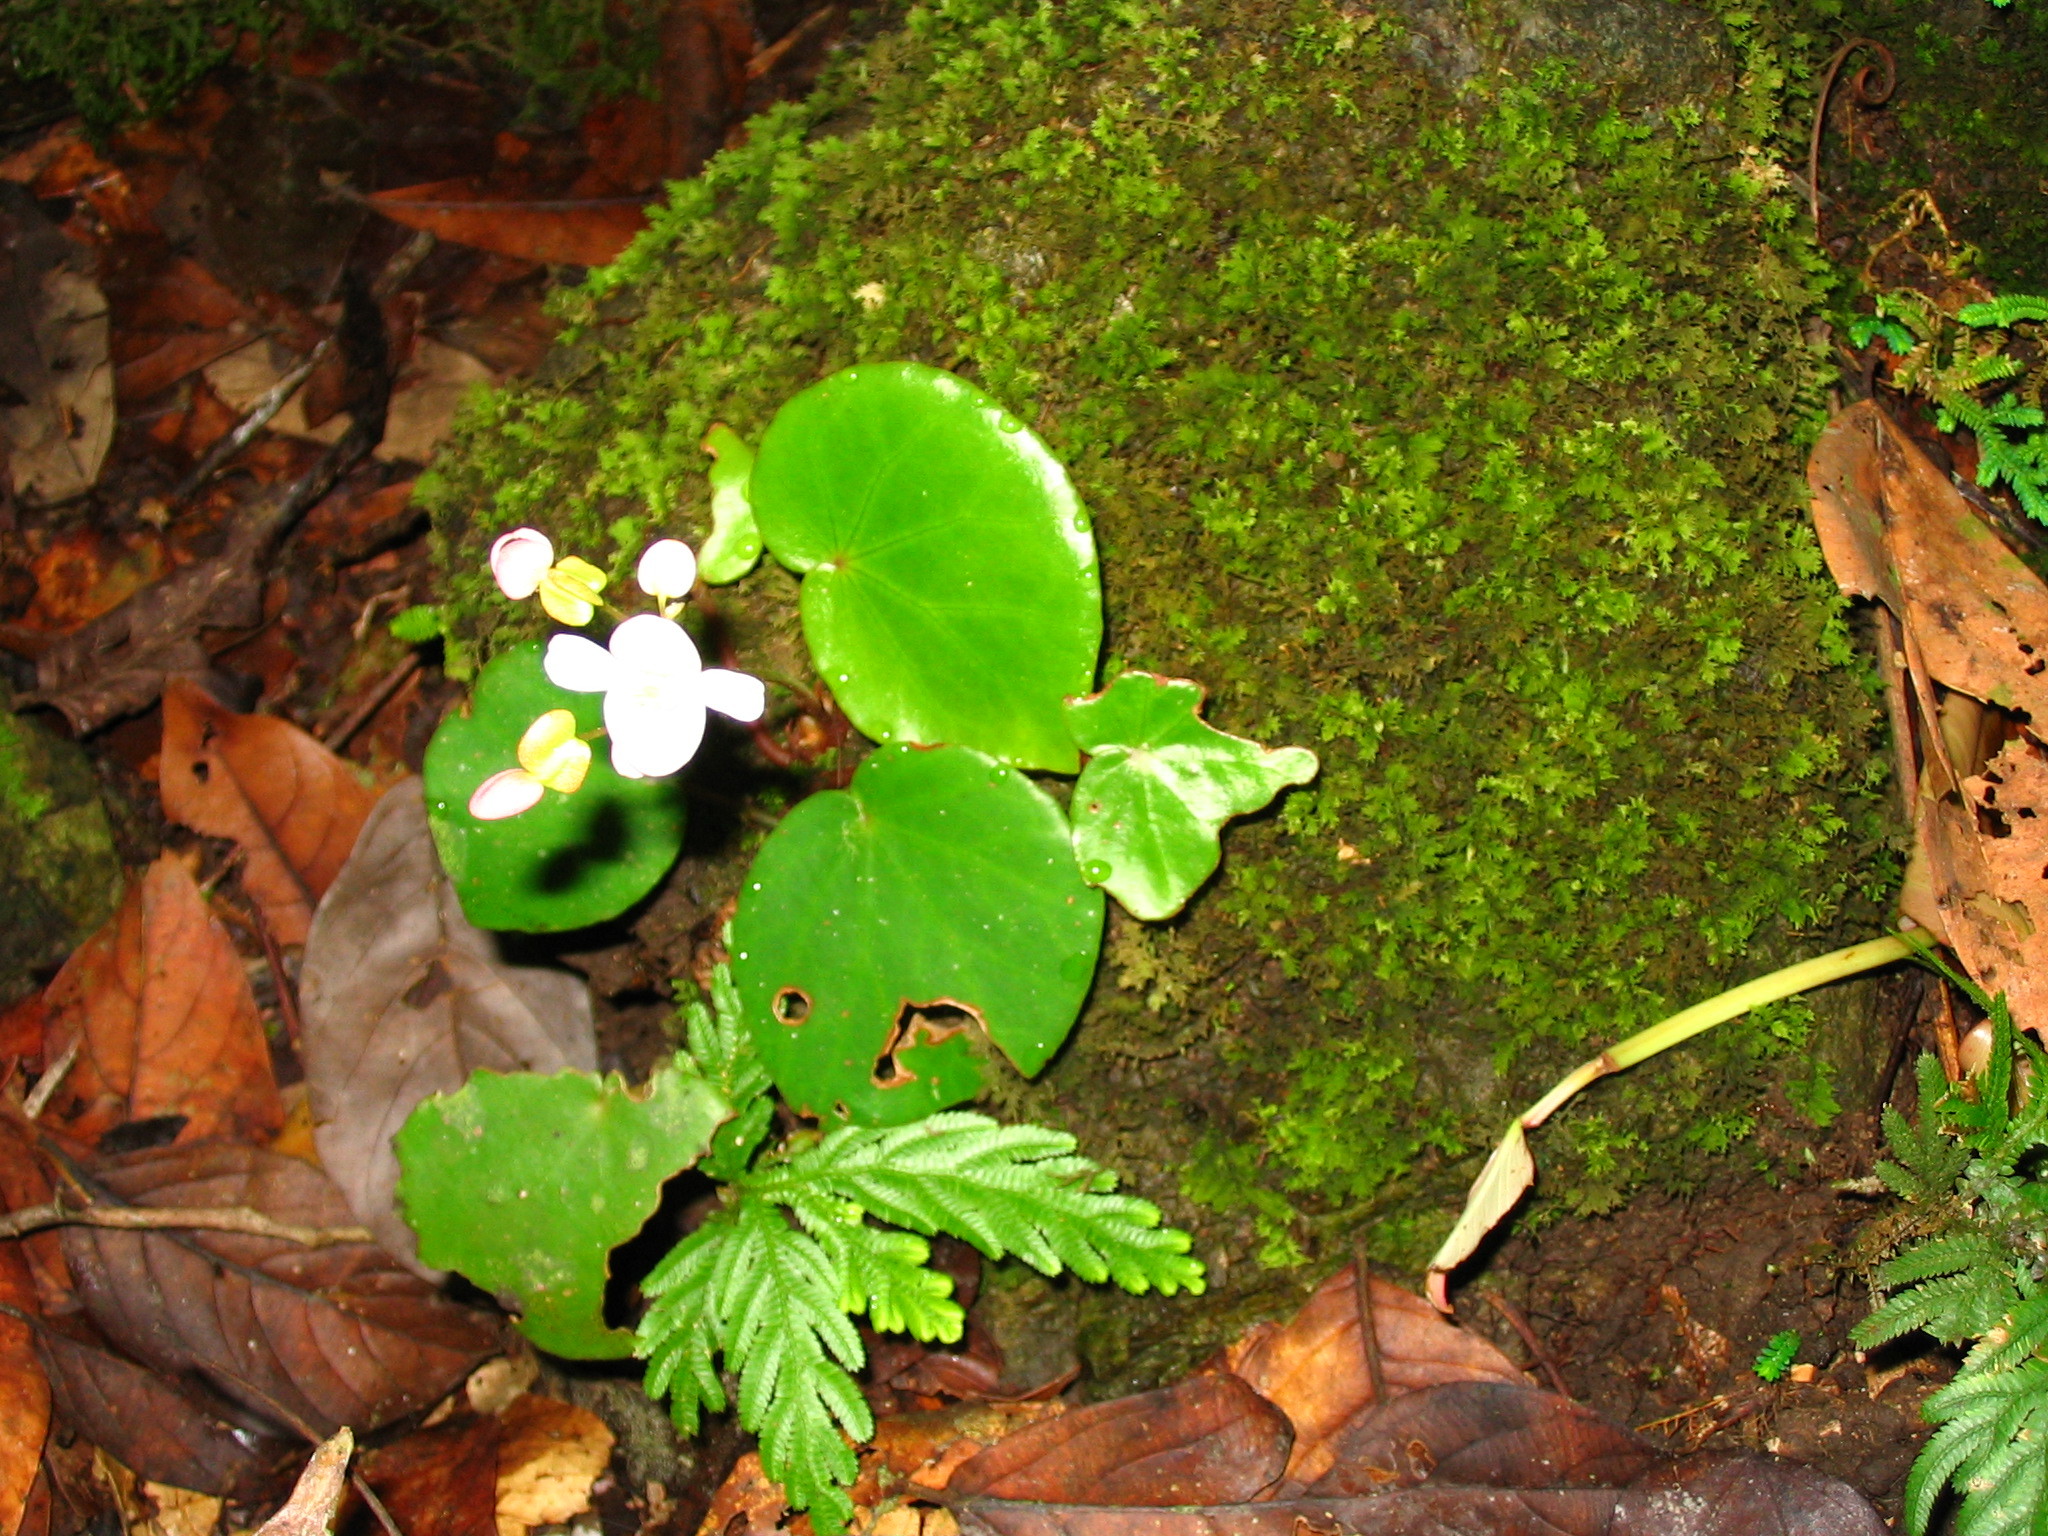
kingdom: Plantae
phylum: Tracheophyta
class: Magnoliopsida
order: Cucurbitales
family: Begoniaceae
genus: Begonia
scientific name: Begonia gueritziana
